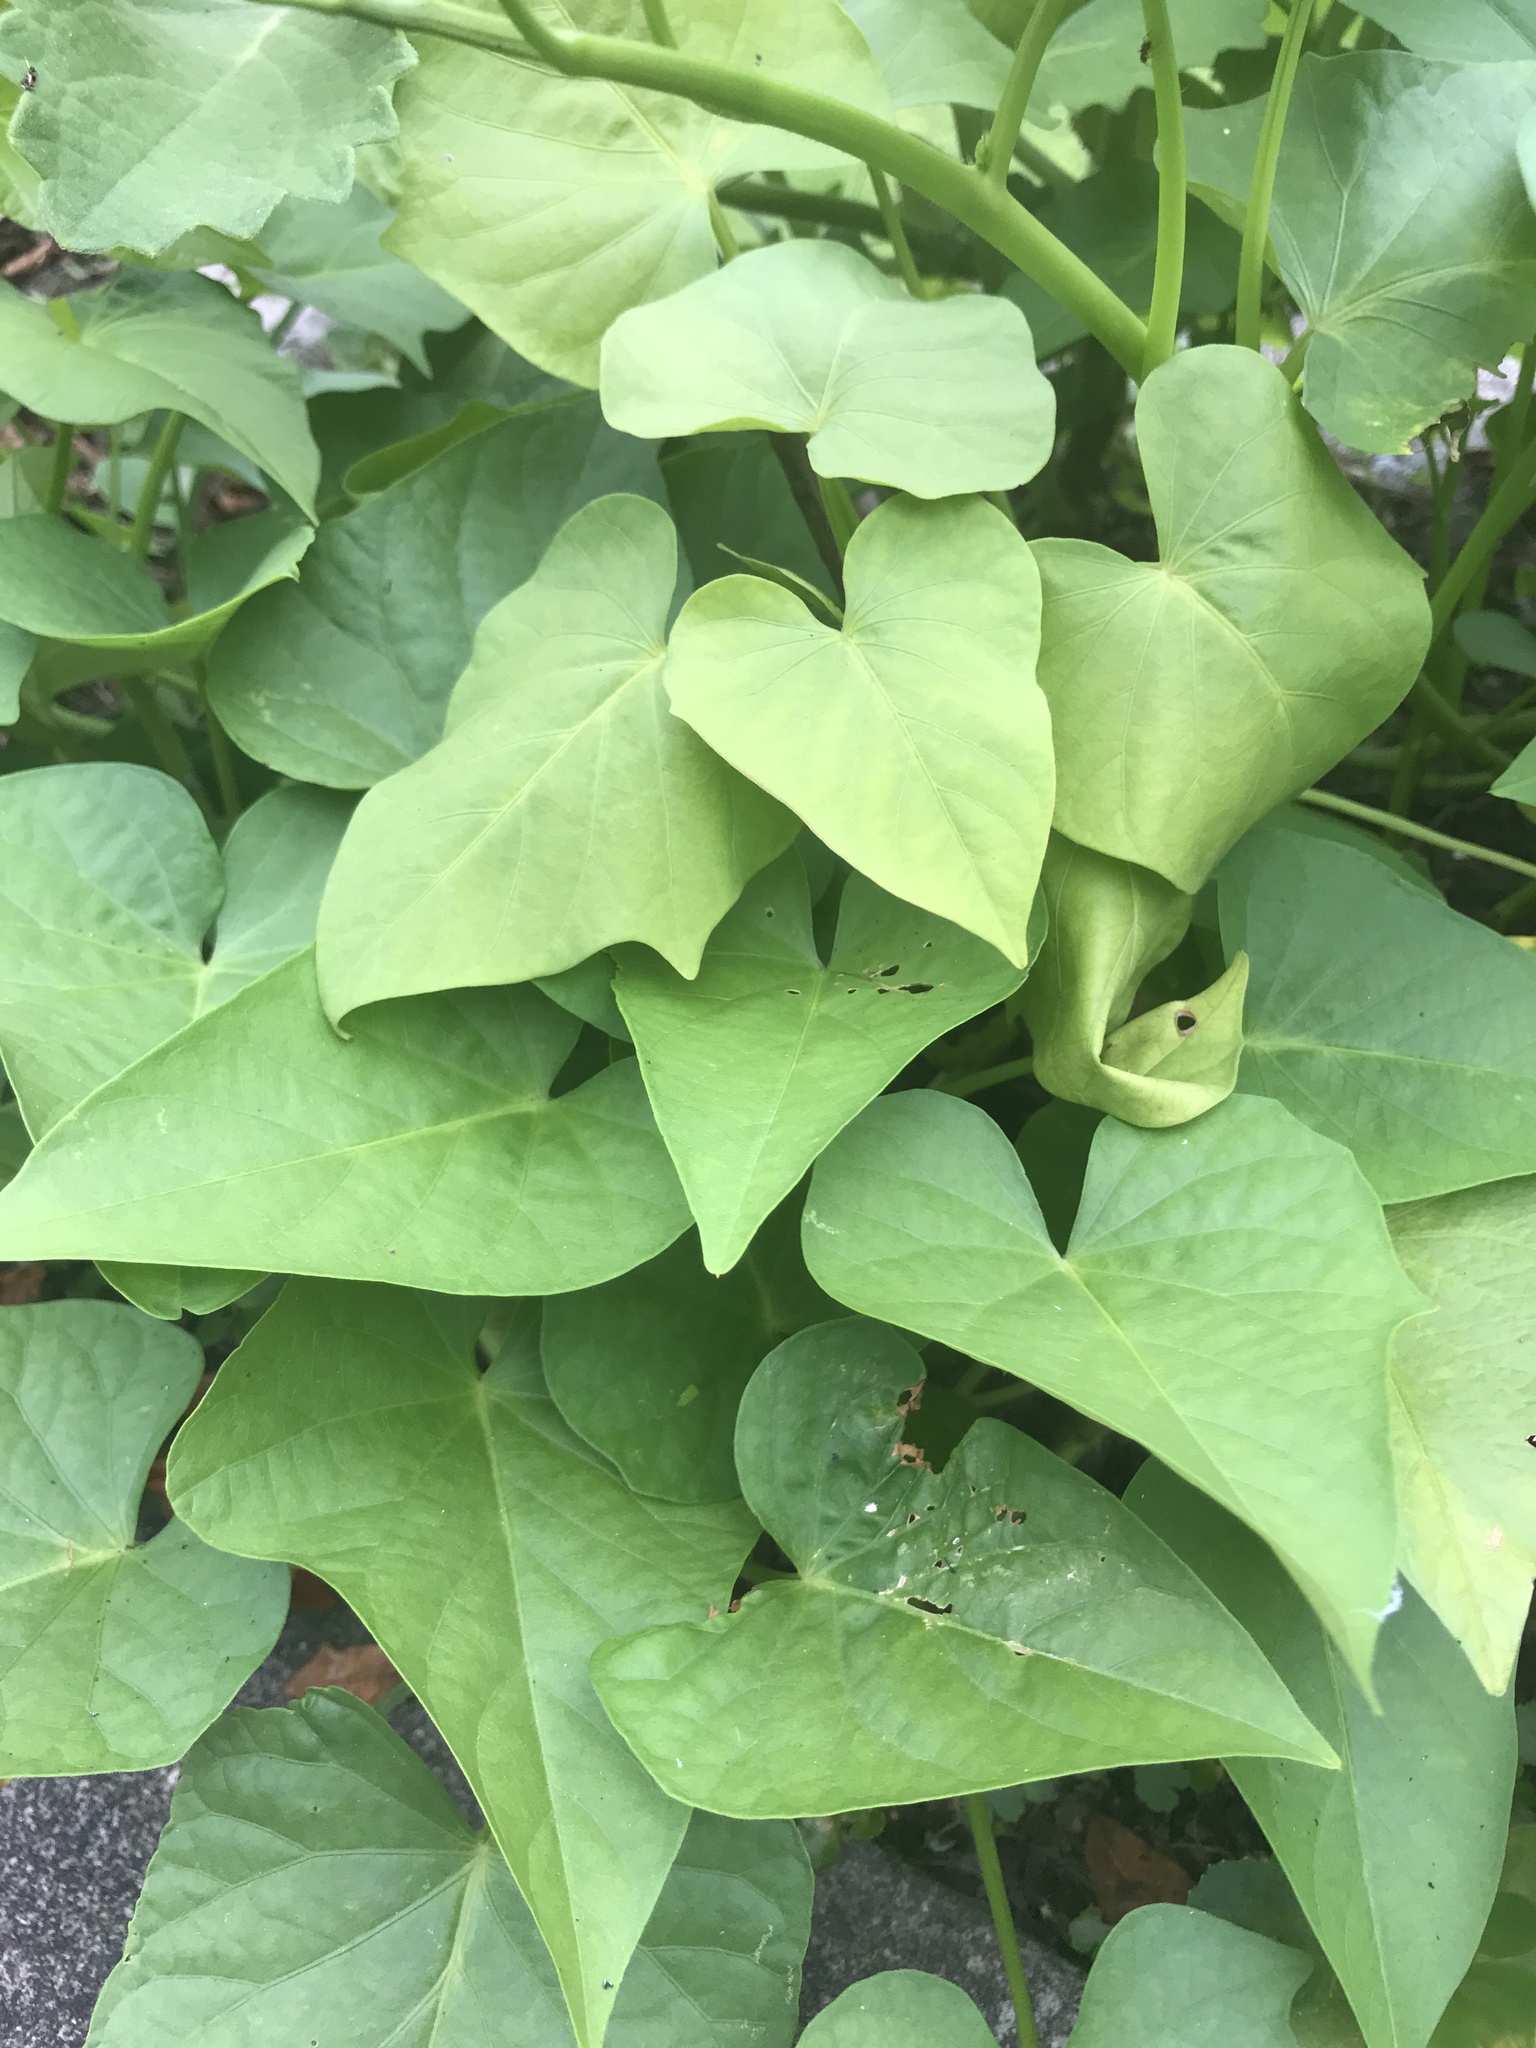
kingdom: Plantae
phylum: Tracheophyta
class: Magnoliopsida
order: Solanales
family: Convolvulaceae
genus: Ipomoea
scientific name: Ipomoea batatas
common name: Sweet-potato
